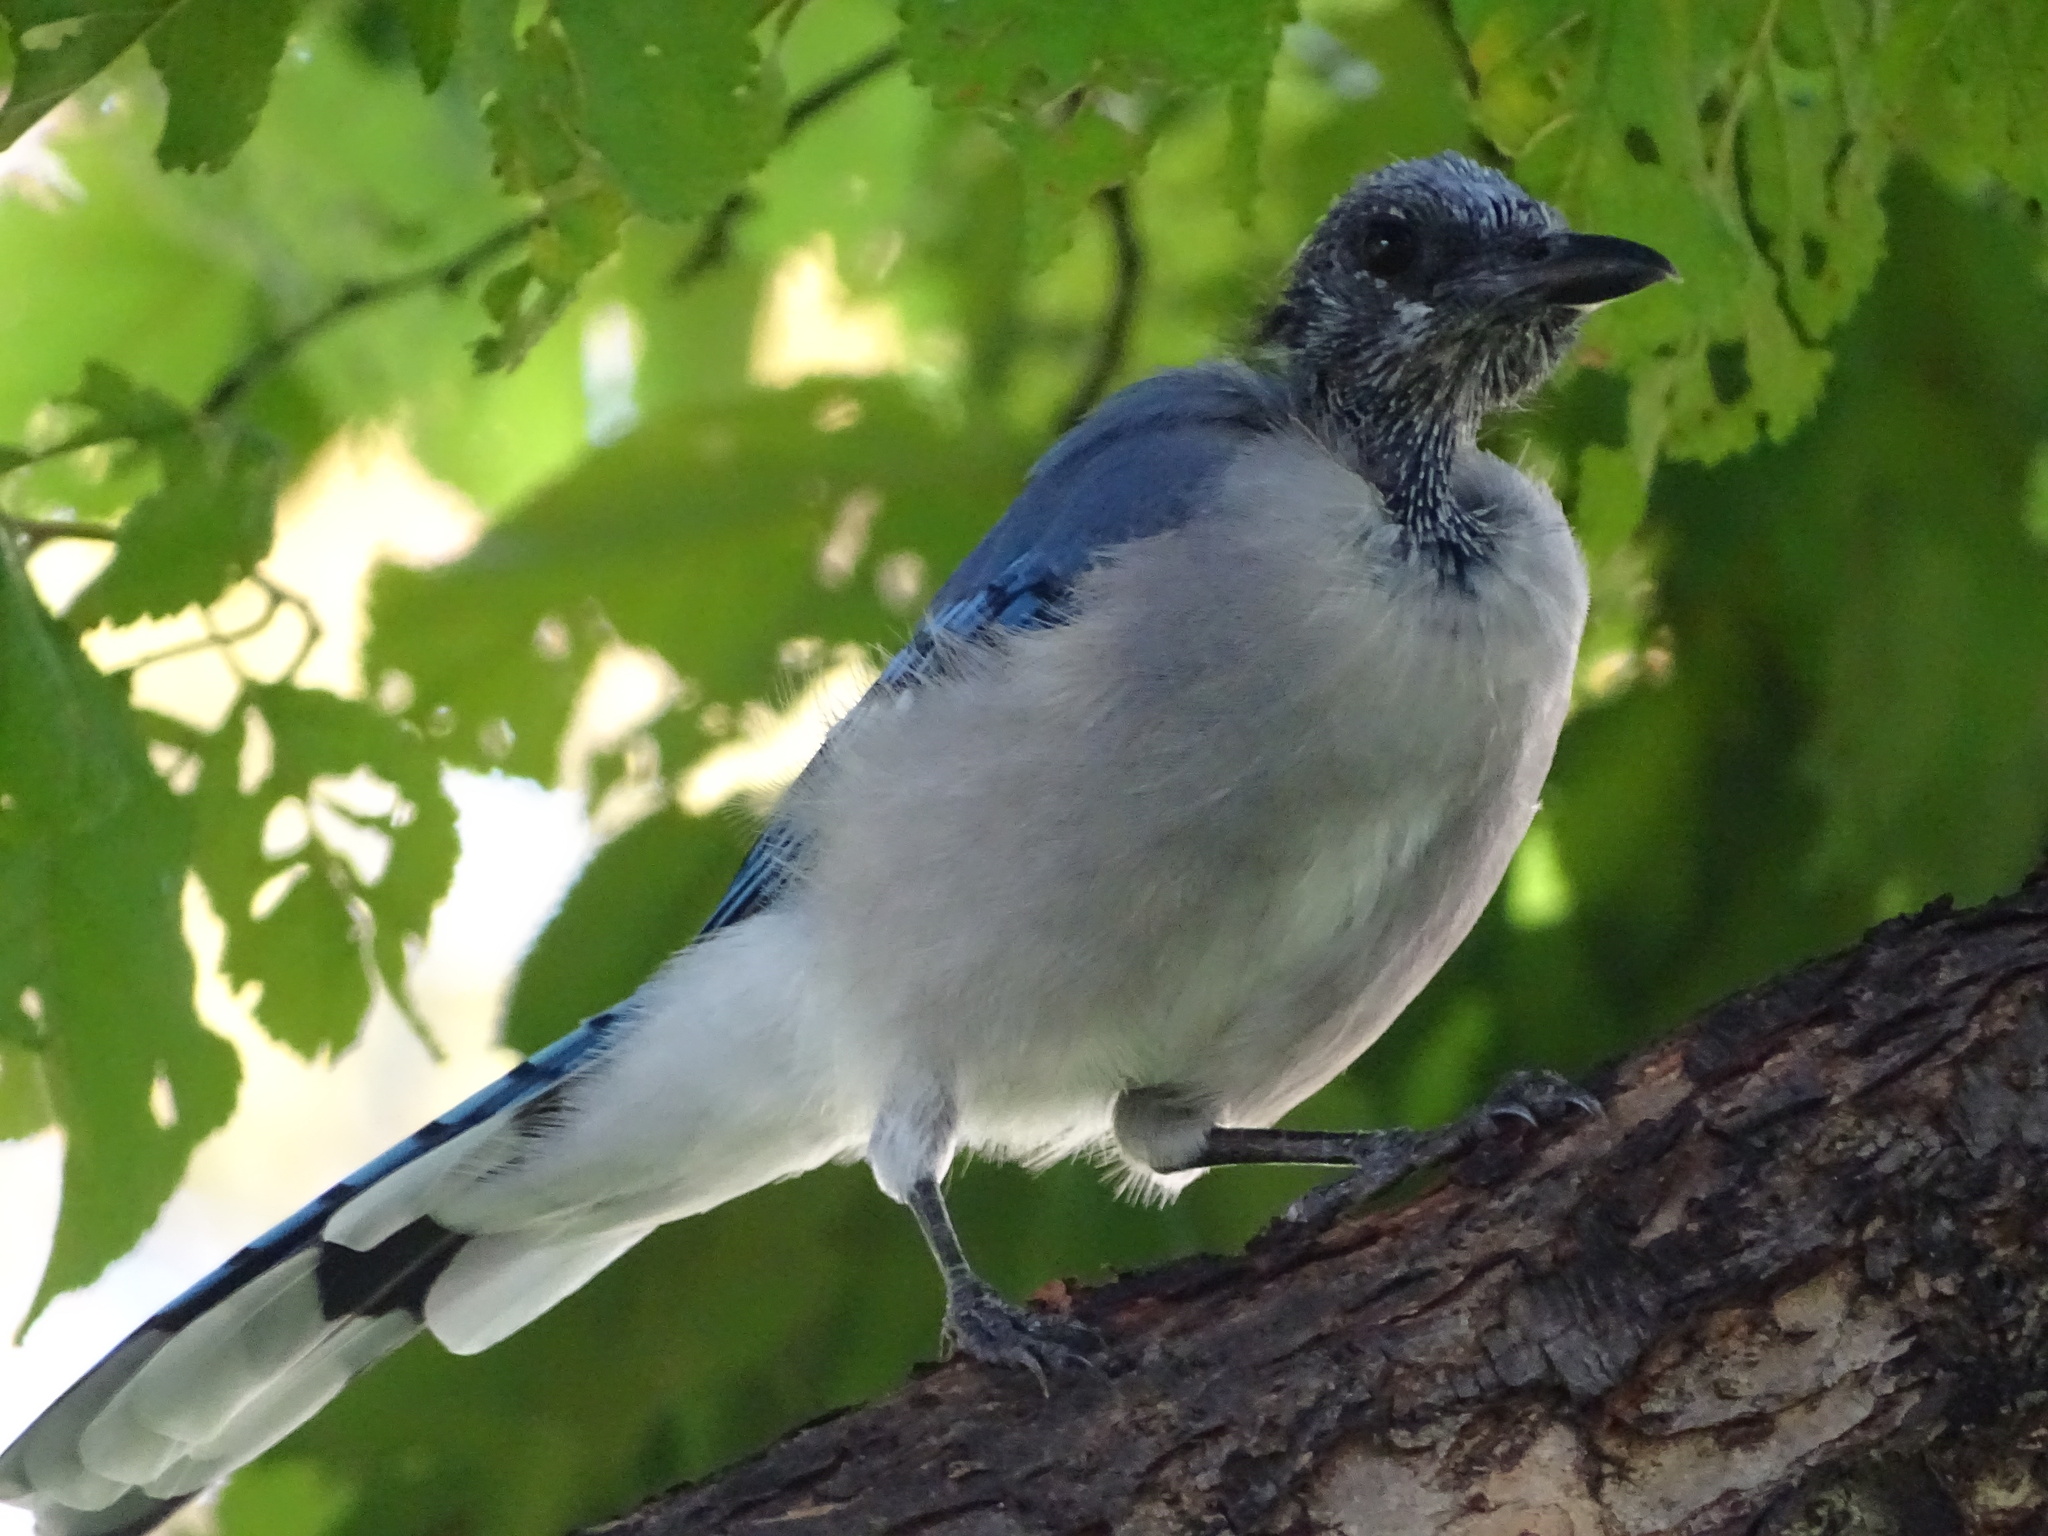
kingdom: Animalia
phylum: Chordata
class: Aves
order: Passeriformes
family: Corvidae
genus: Cyanocitta
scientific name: Cyanocitta cristata
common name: Blue jay
